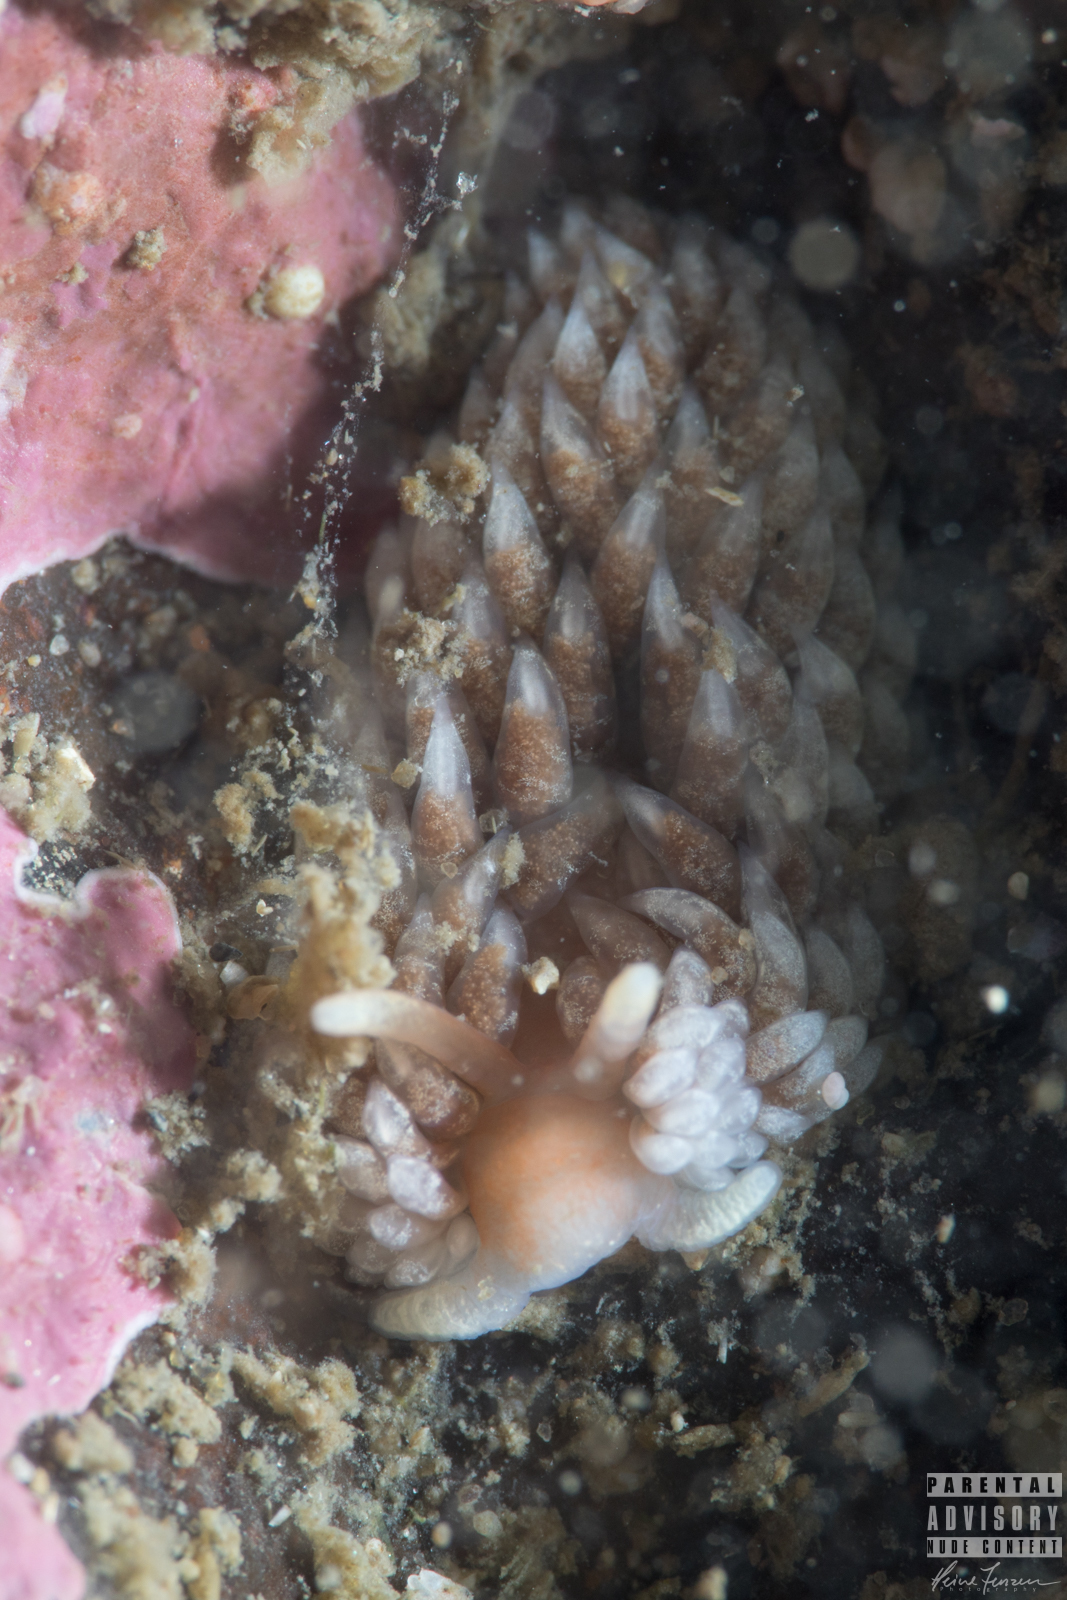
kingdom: Animalia
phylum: Mollusca
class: Gastropoda
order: Nudibranchia
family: Aeolidiidae
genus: Aeolidiella
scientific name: Aeolidiella glauca
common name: Orange-brown aeolid
